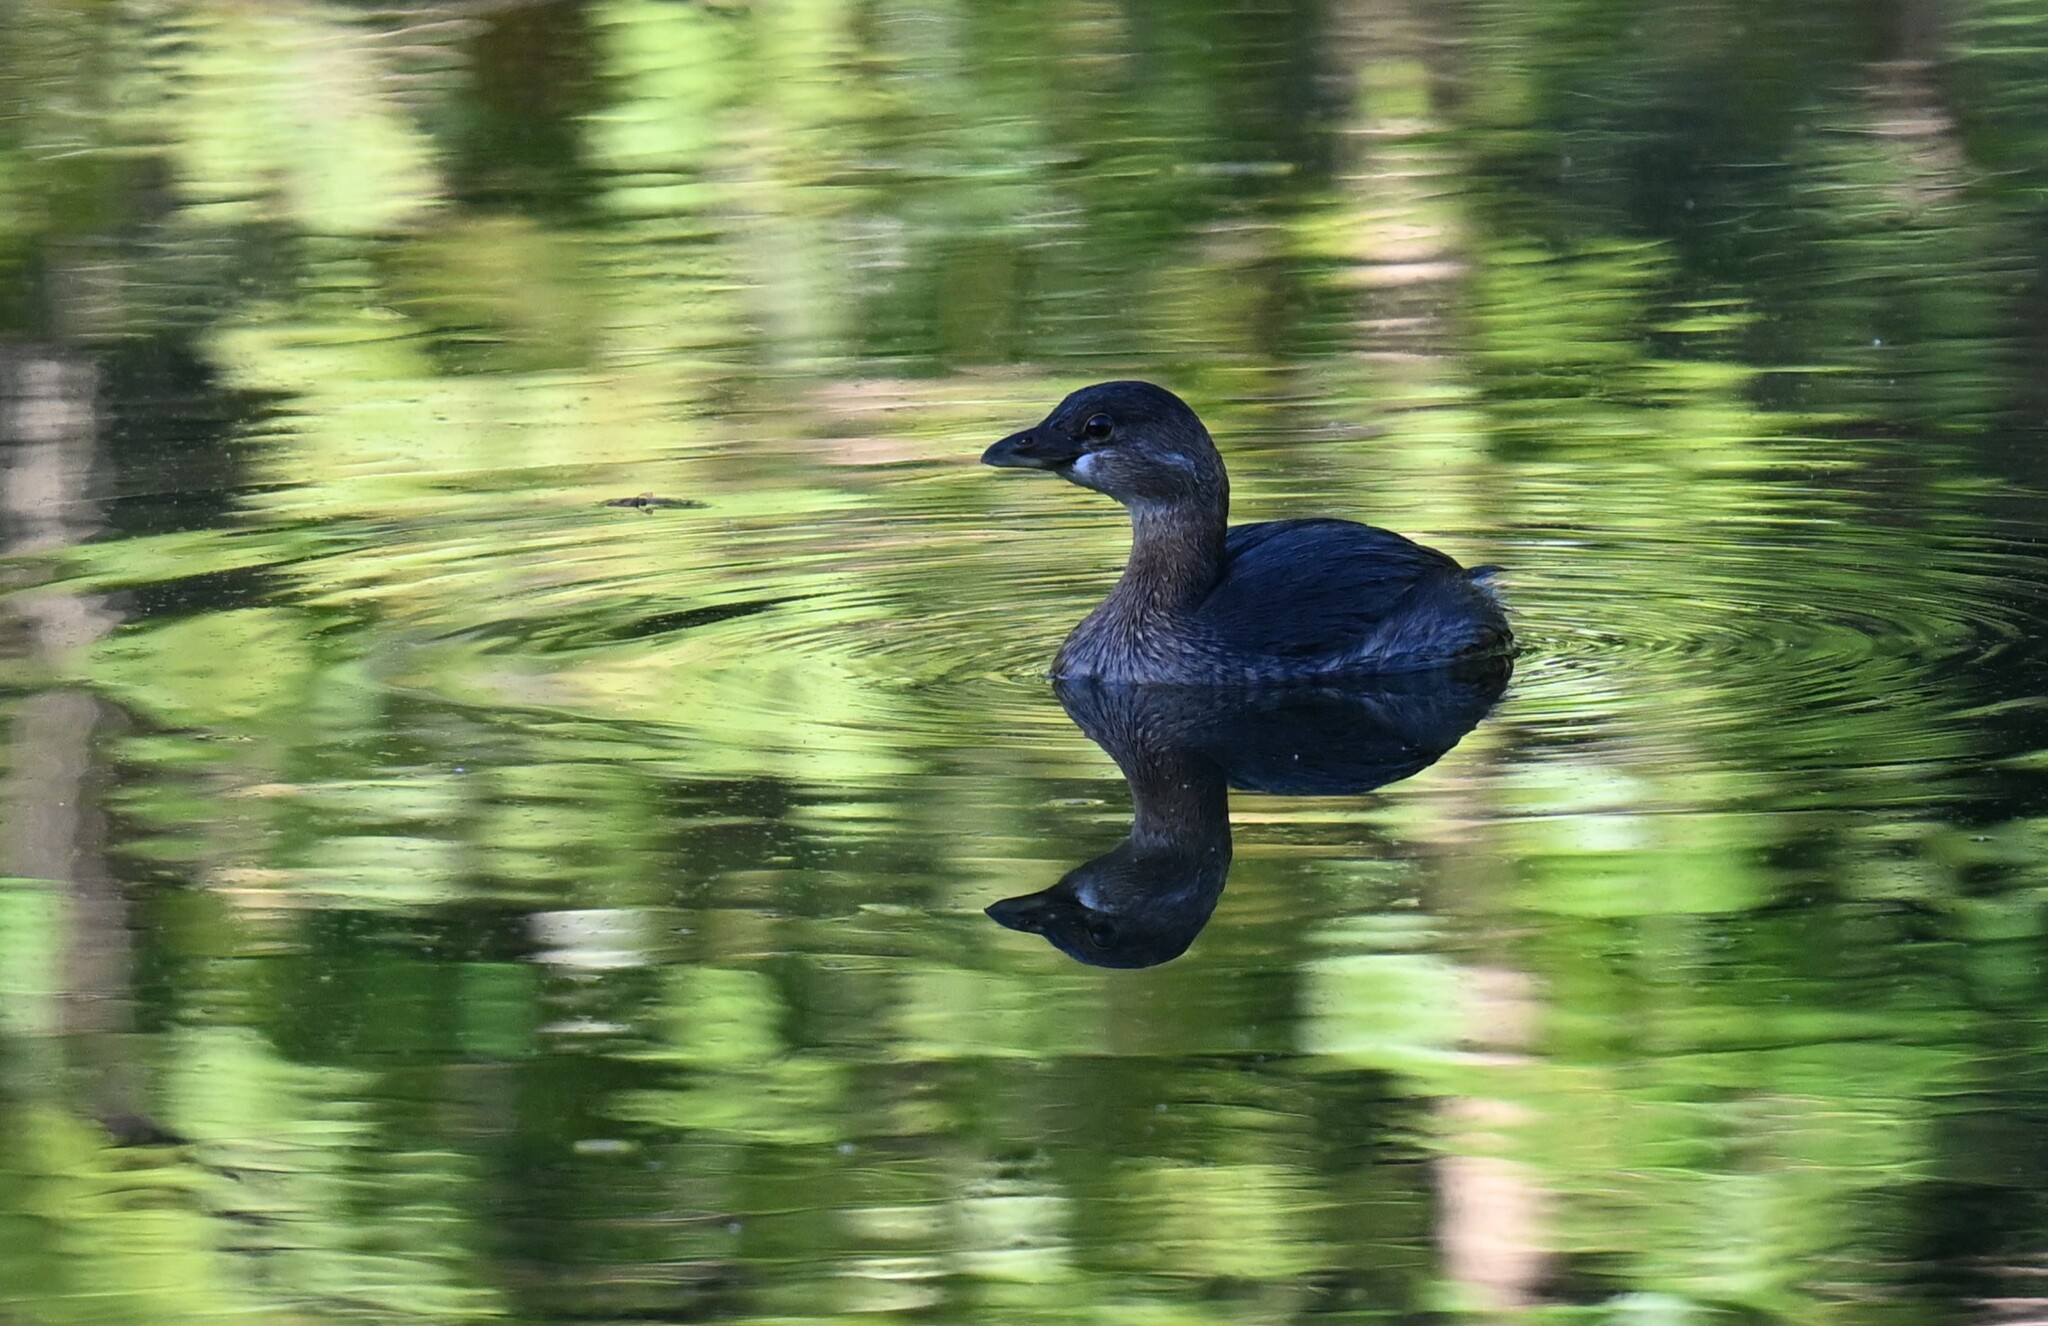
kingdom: Animalia
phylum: Chordata
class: Aves
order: Podicipediformes
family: Podicipedidae
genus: Podilymbus
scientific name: Podilymbus podiceps
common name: Pied-billed grebe
